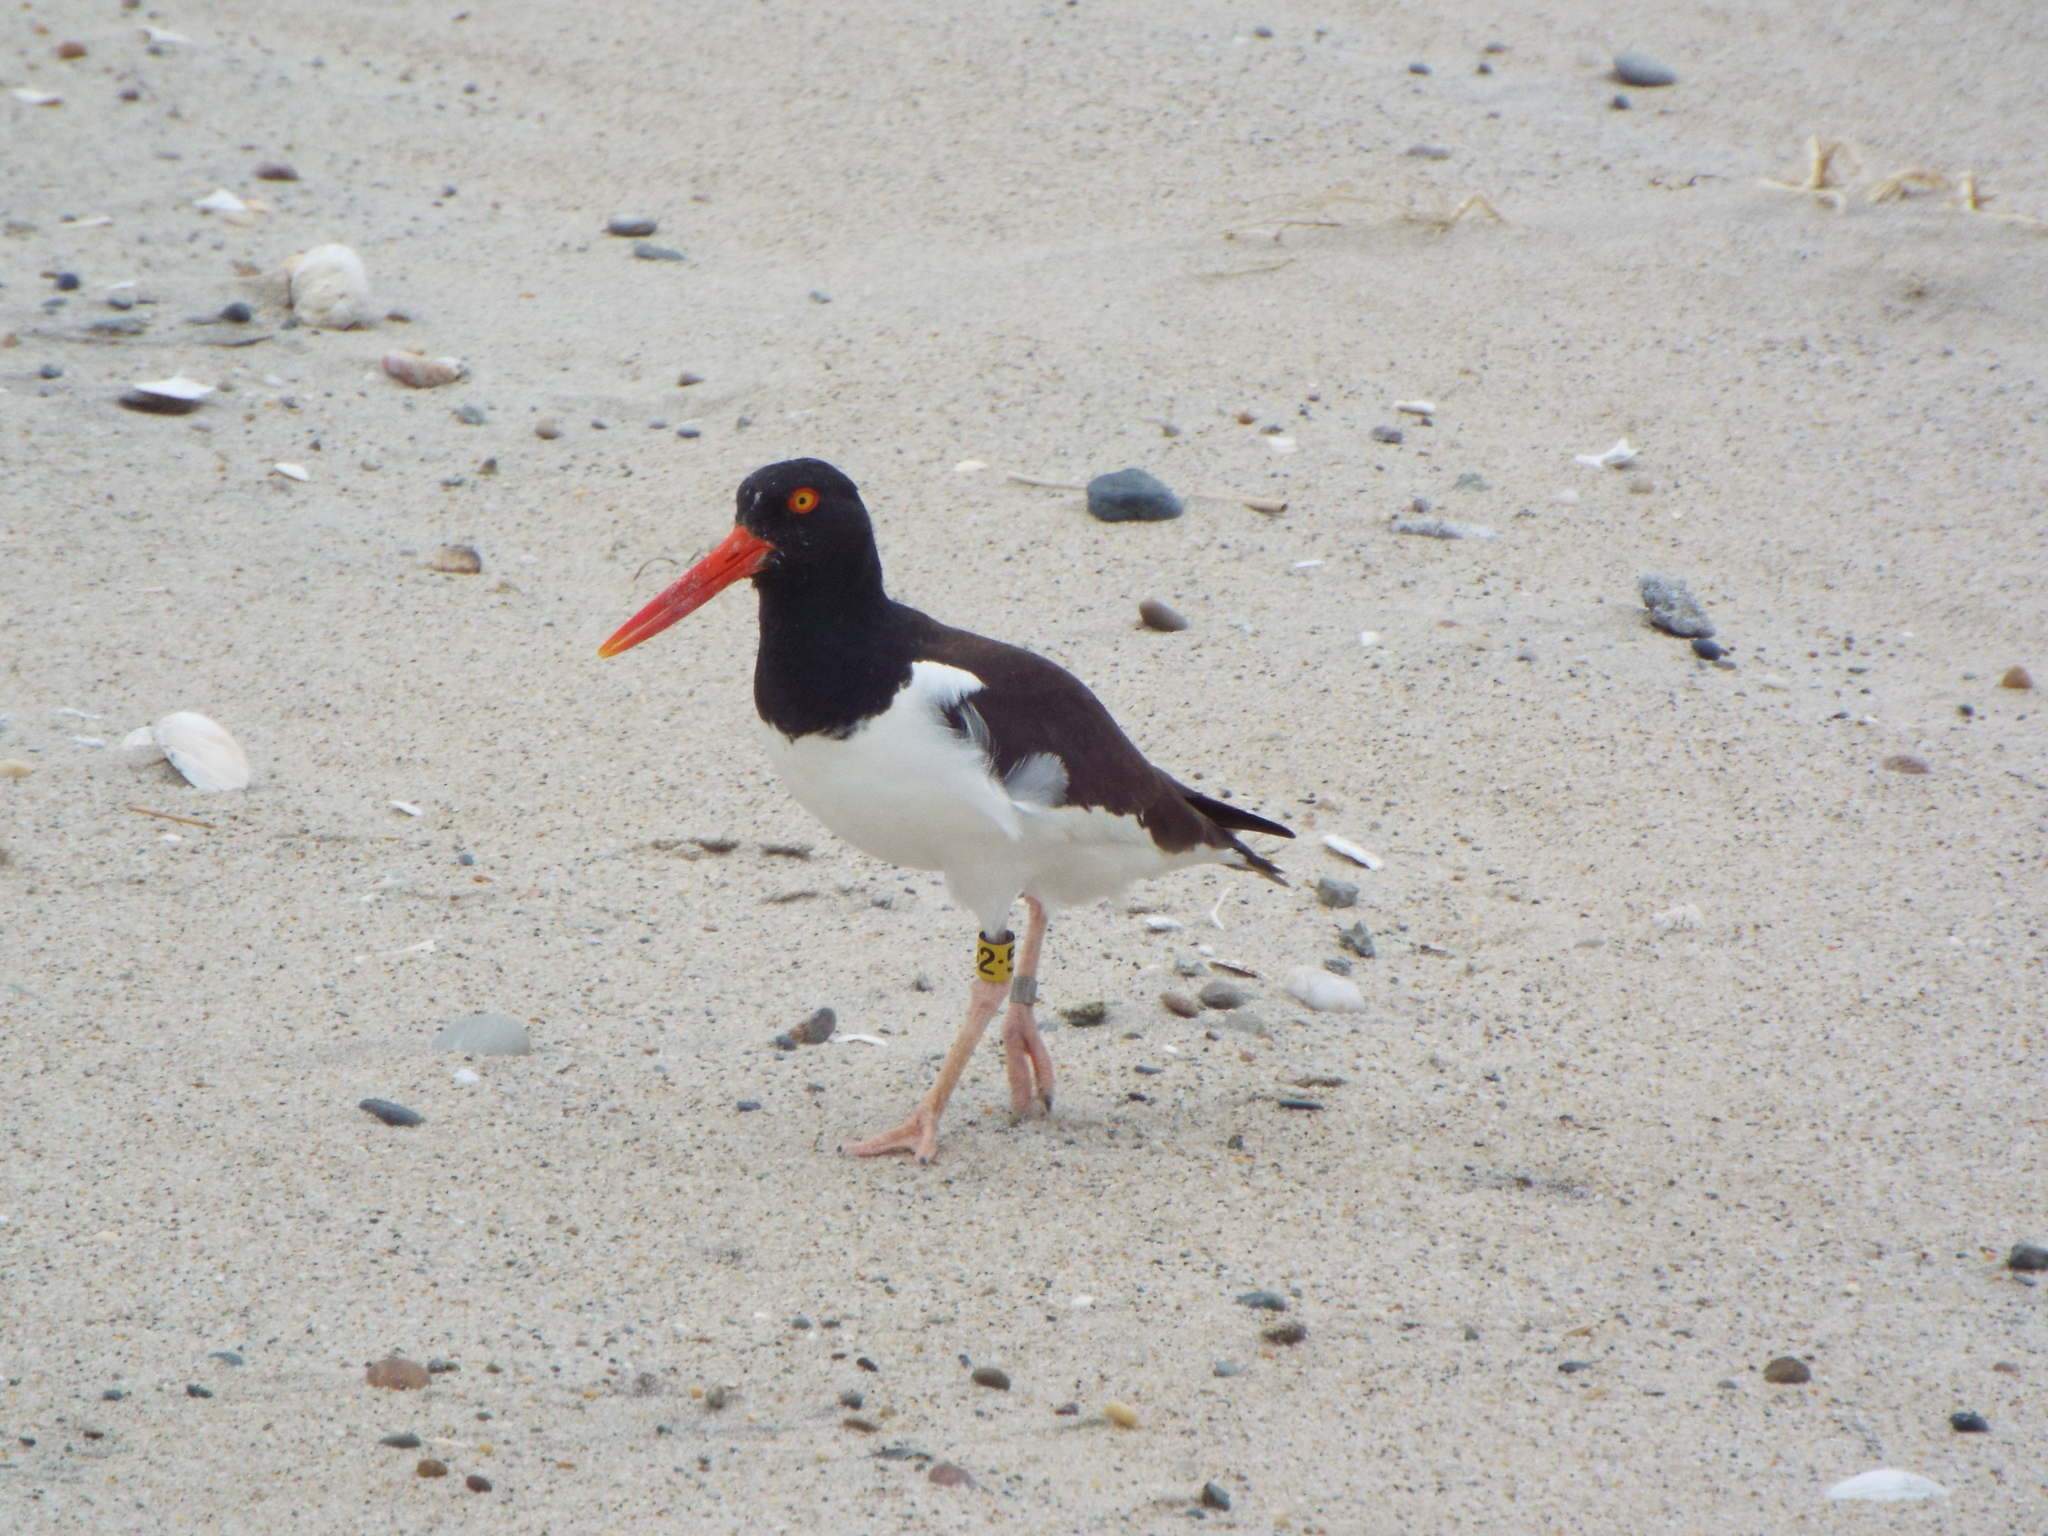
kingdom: Animalia
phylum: Chordata
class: Aves
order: Charadriiformes
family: Haematopodidae
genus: Haematopus
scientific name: Haematopus palliatus
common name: American oystercatcher
